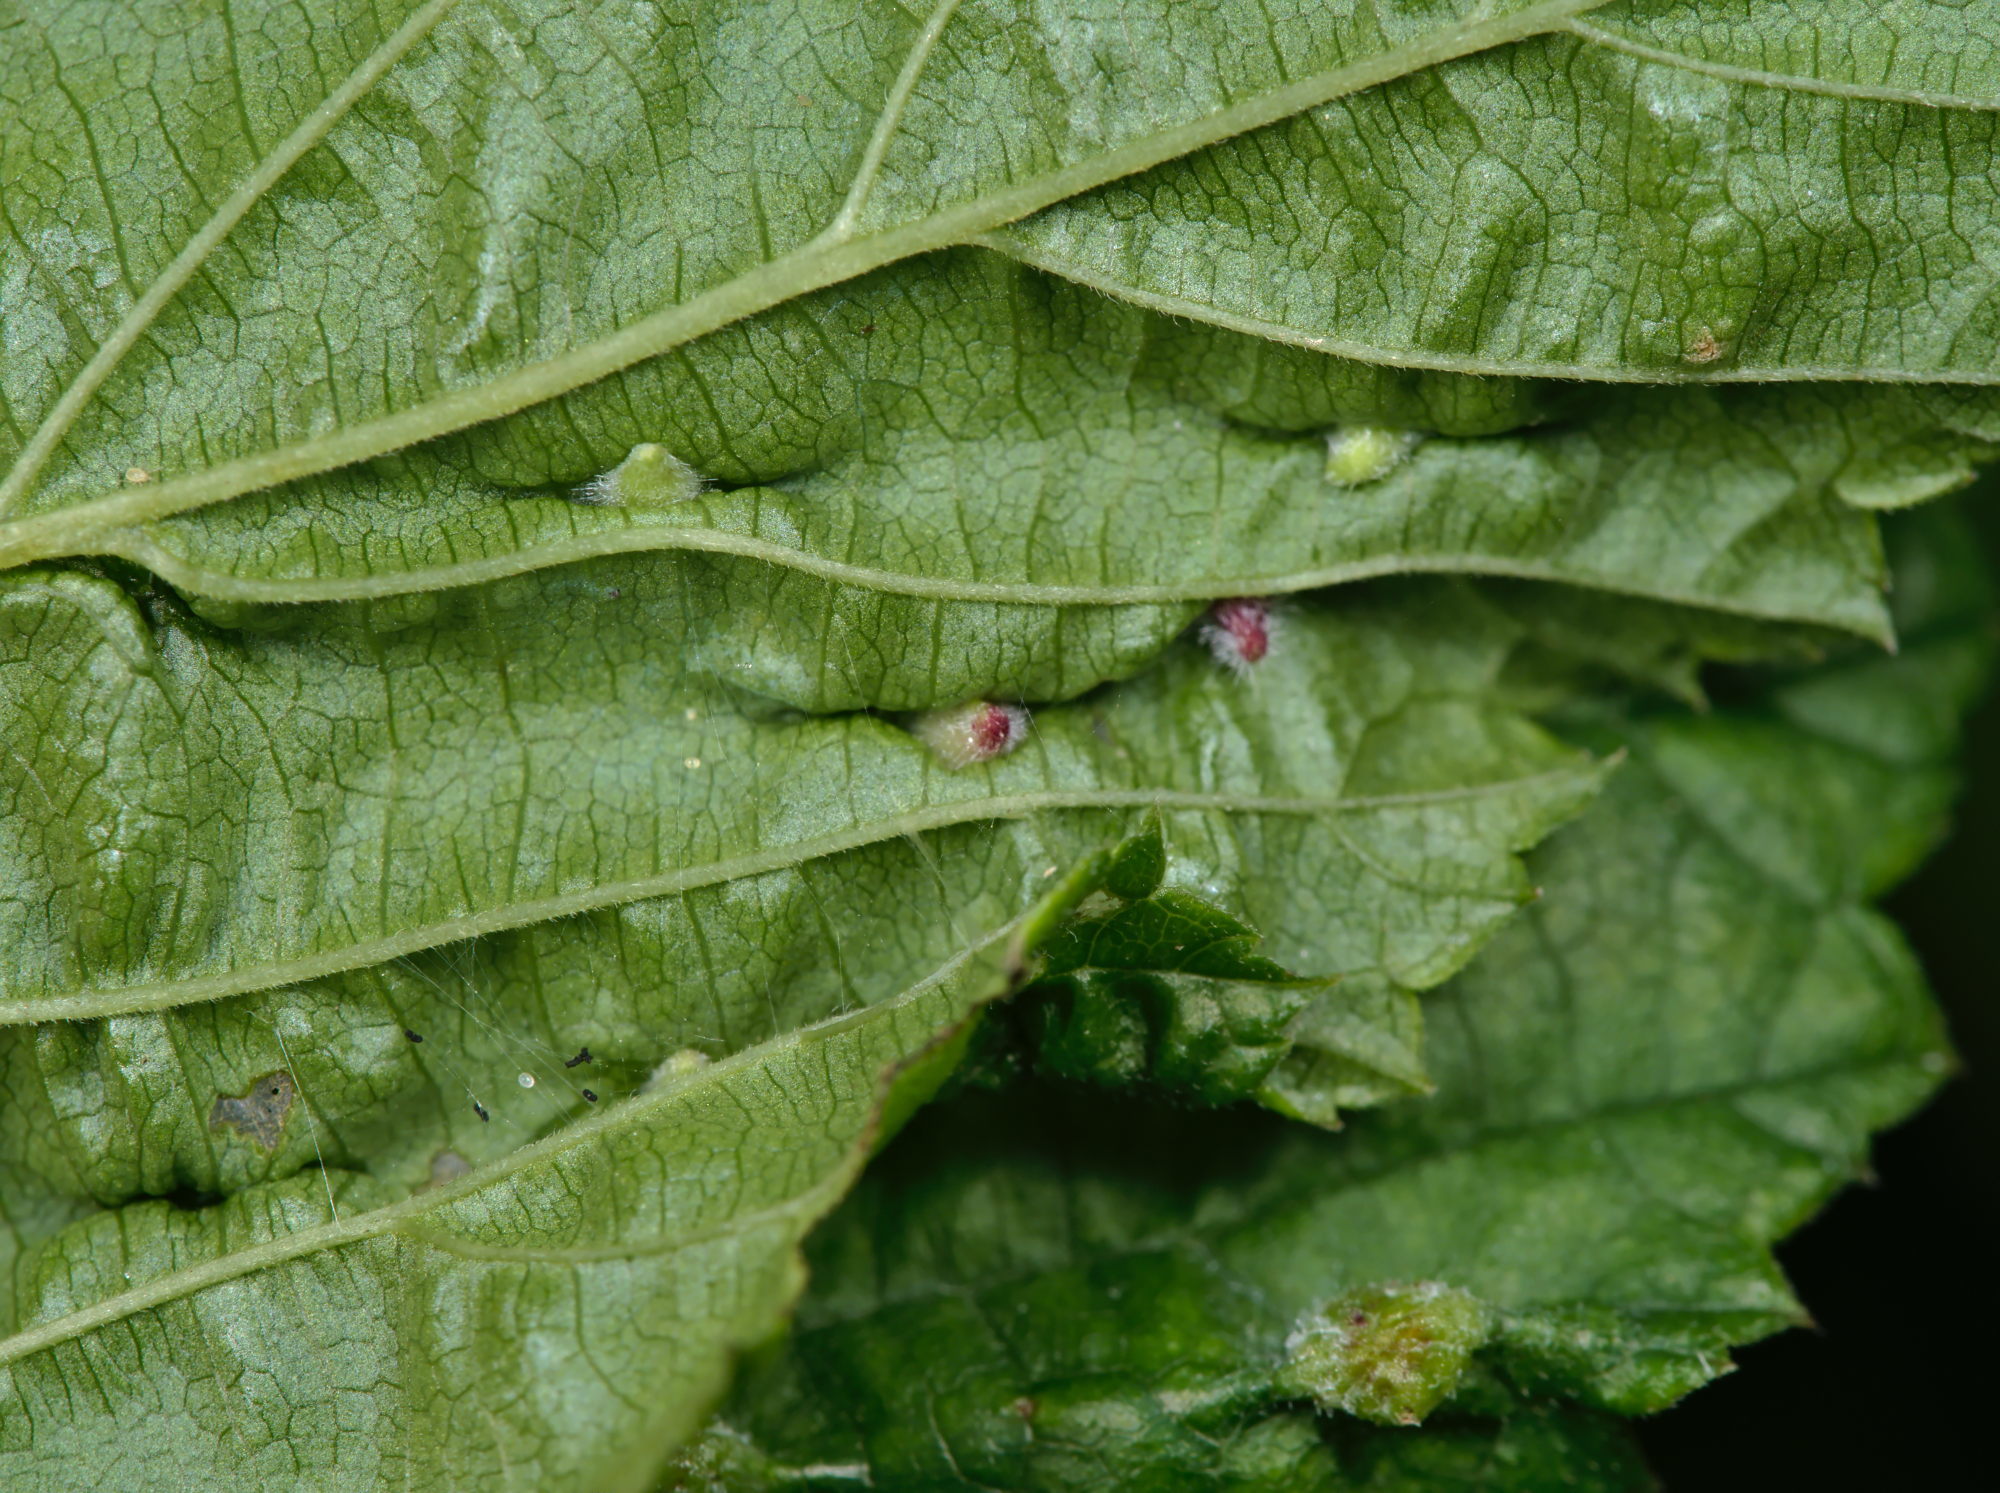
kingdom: Animalia
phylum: Arthropoda
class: Insecta
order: Diptera
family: Cecidomyiidae
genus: Dasineura
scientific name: Dasineura ulmaria
